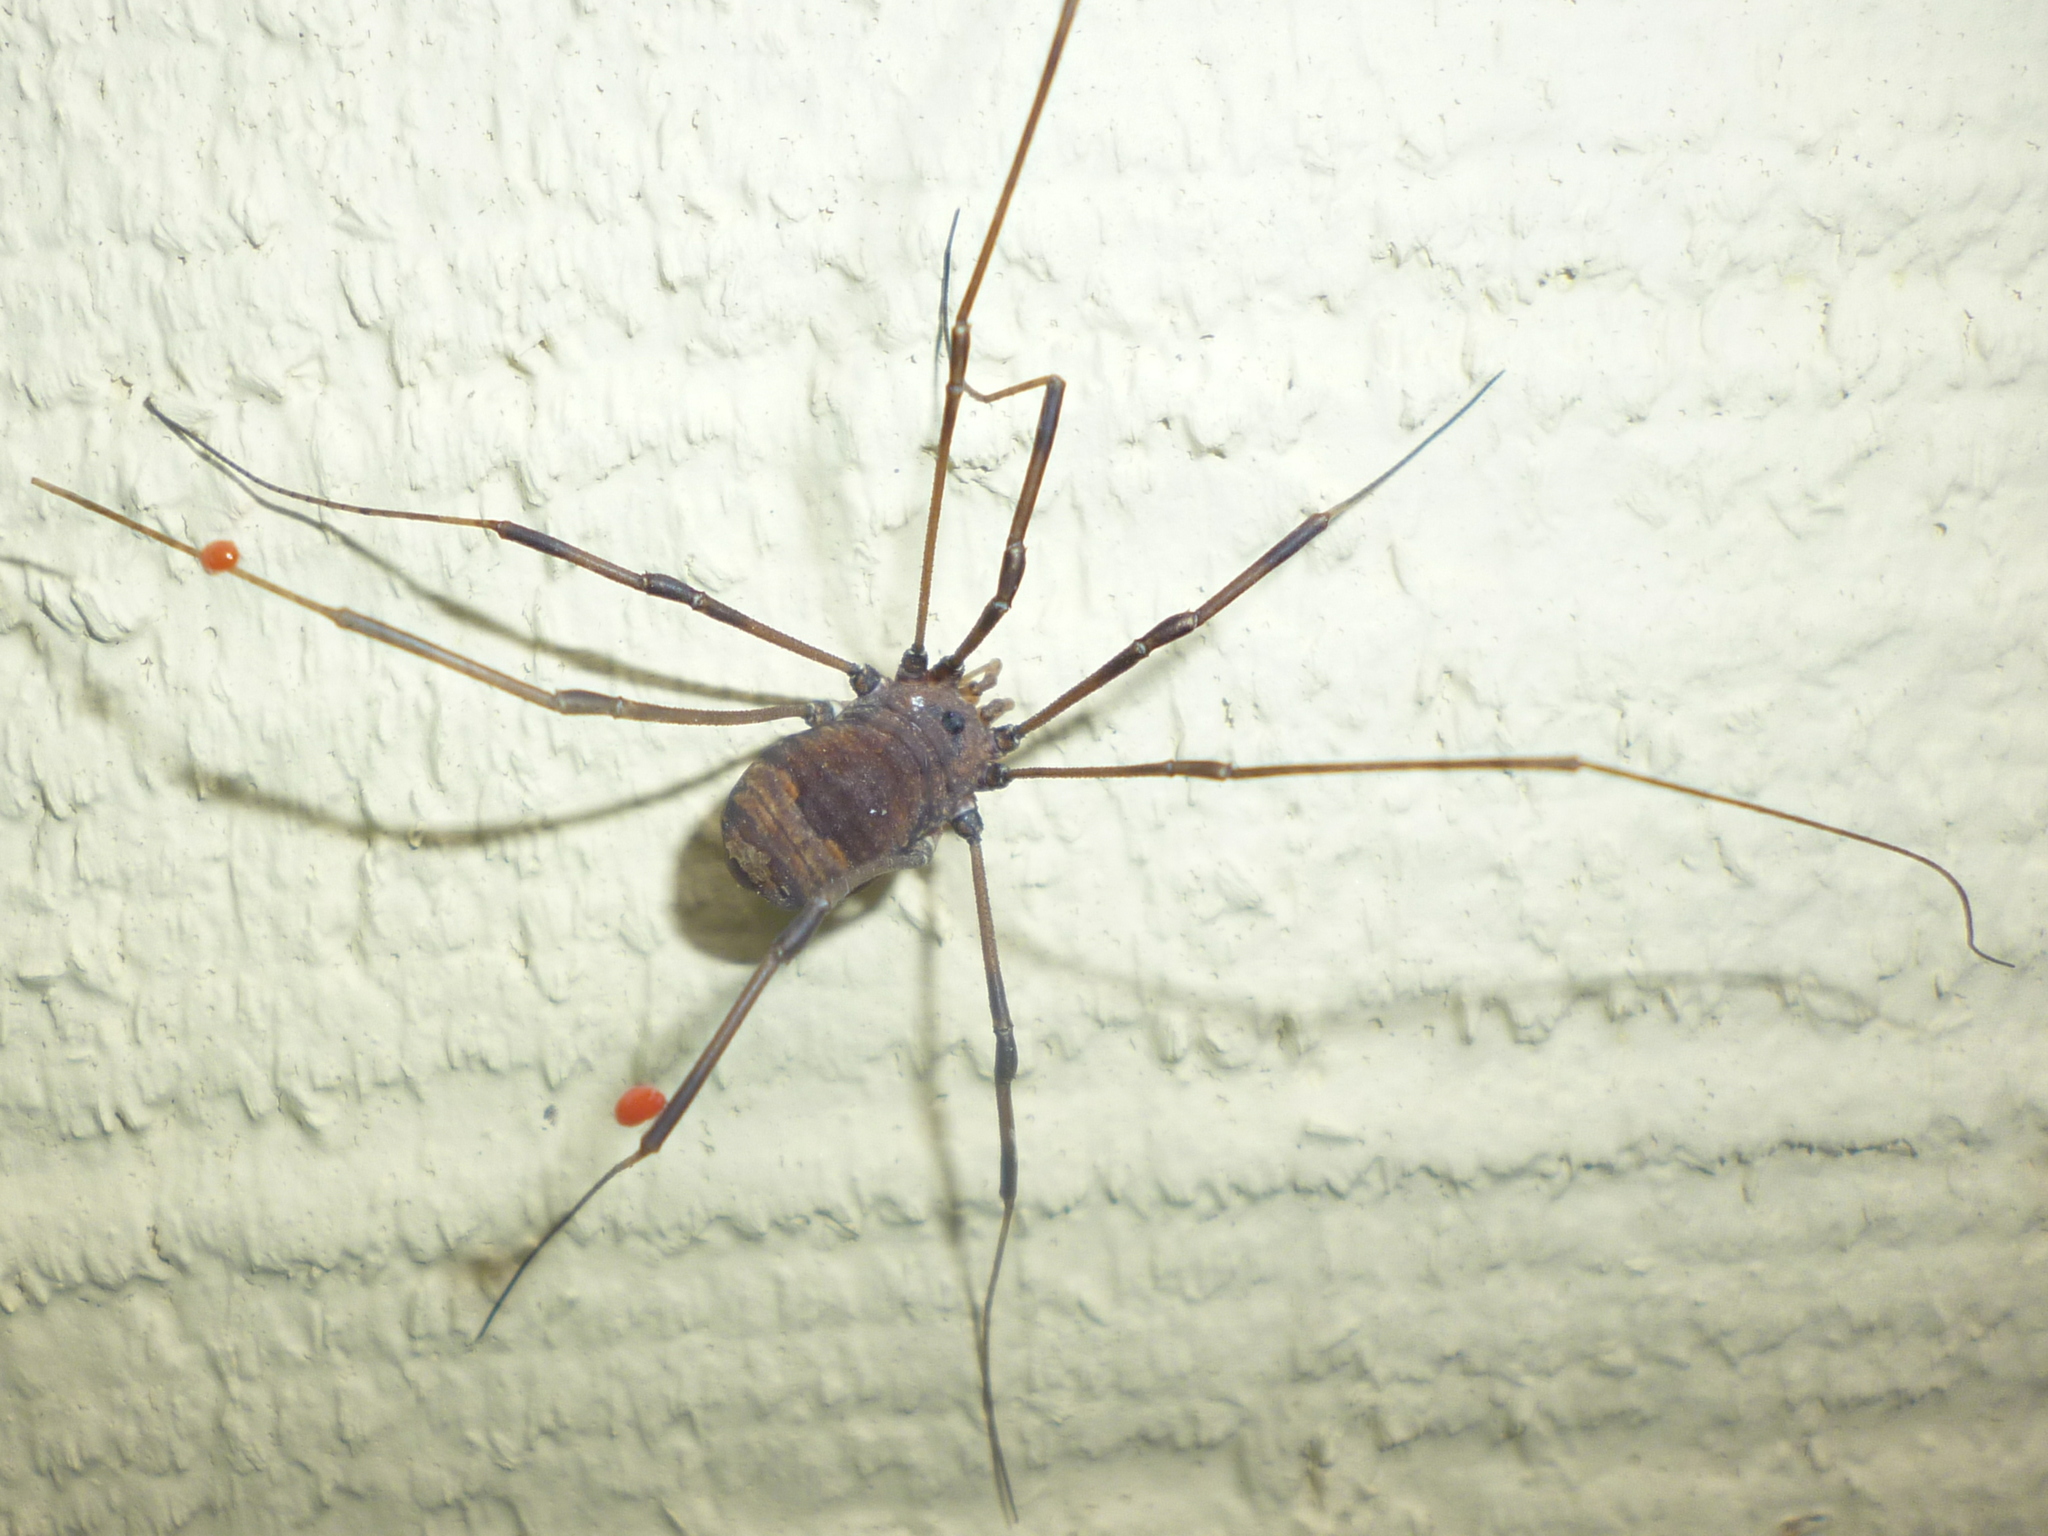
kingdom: Animalia
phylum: Arthropoda
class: Arachnida
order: Opiliones
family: Sclerosomatidae
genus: Leiobunum
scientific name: Leiobunum verrucosum
